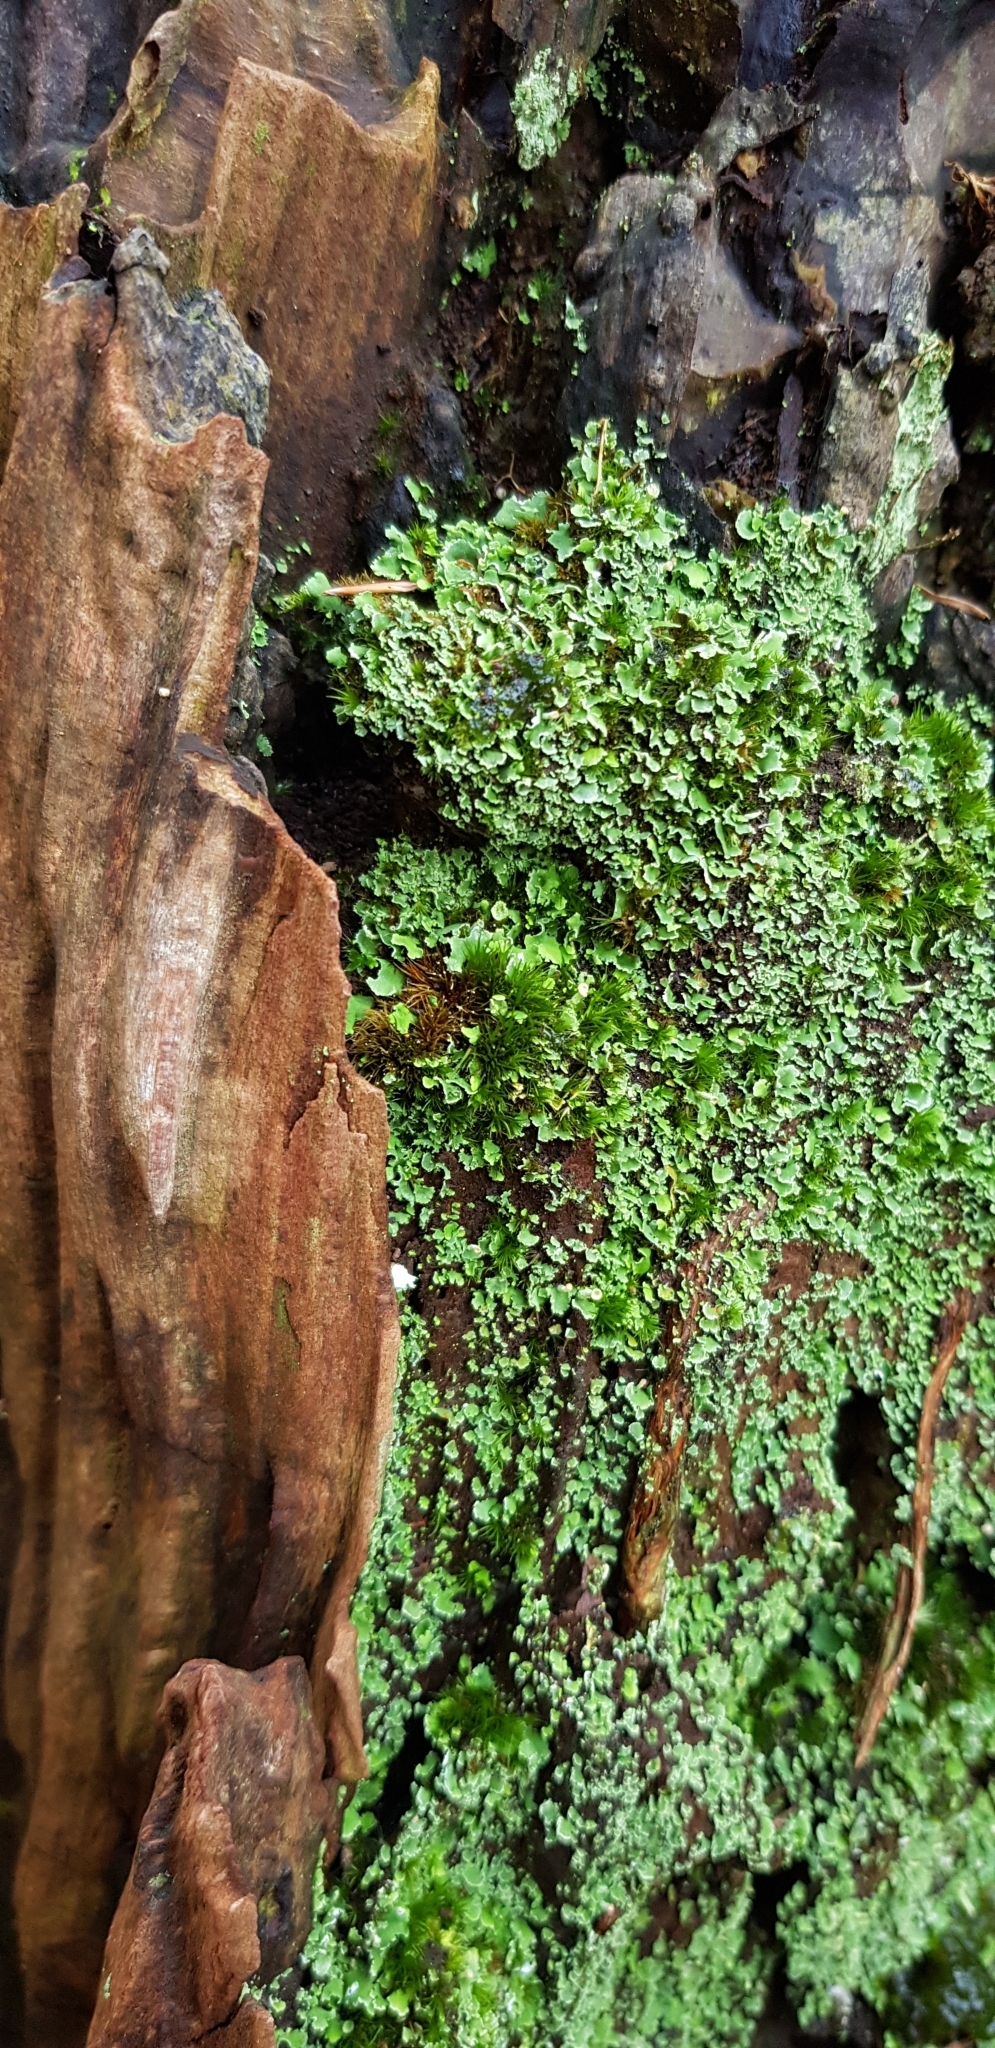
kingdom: Plantae
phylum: Bryophyta
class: Bryopsida
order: Dicranales
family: Leucobryaceae
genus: Campylopus
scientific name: Campylopus introflexus
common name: Heath star moss
